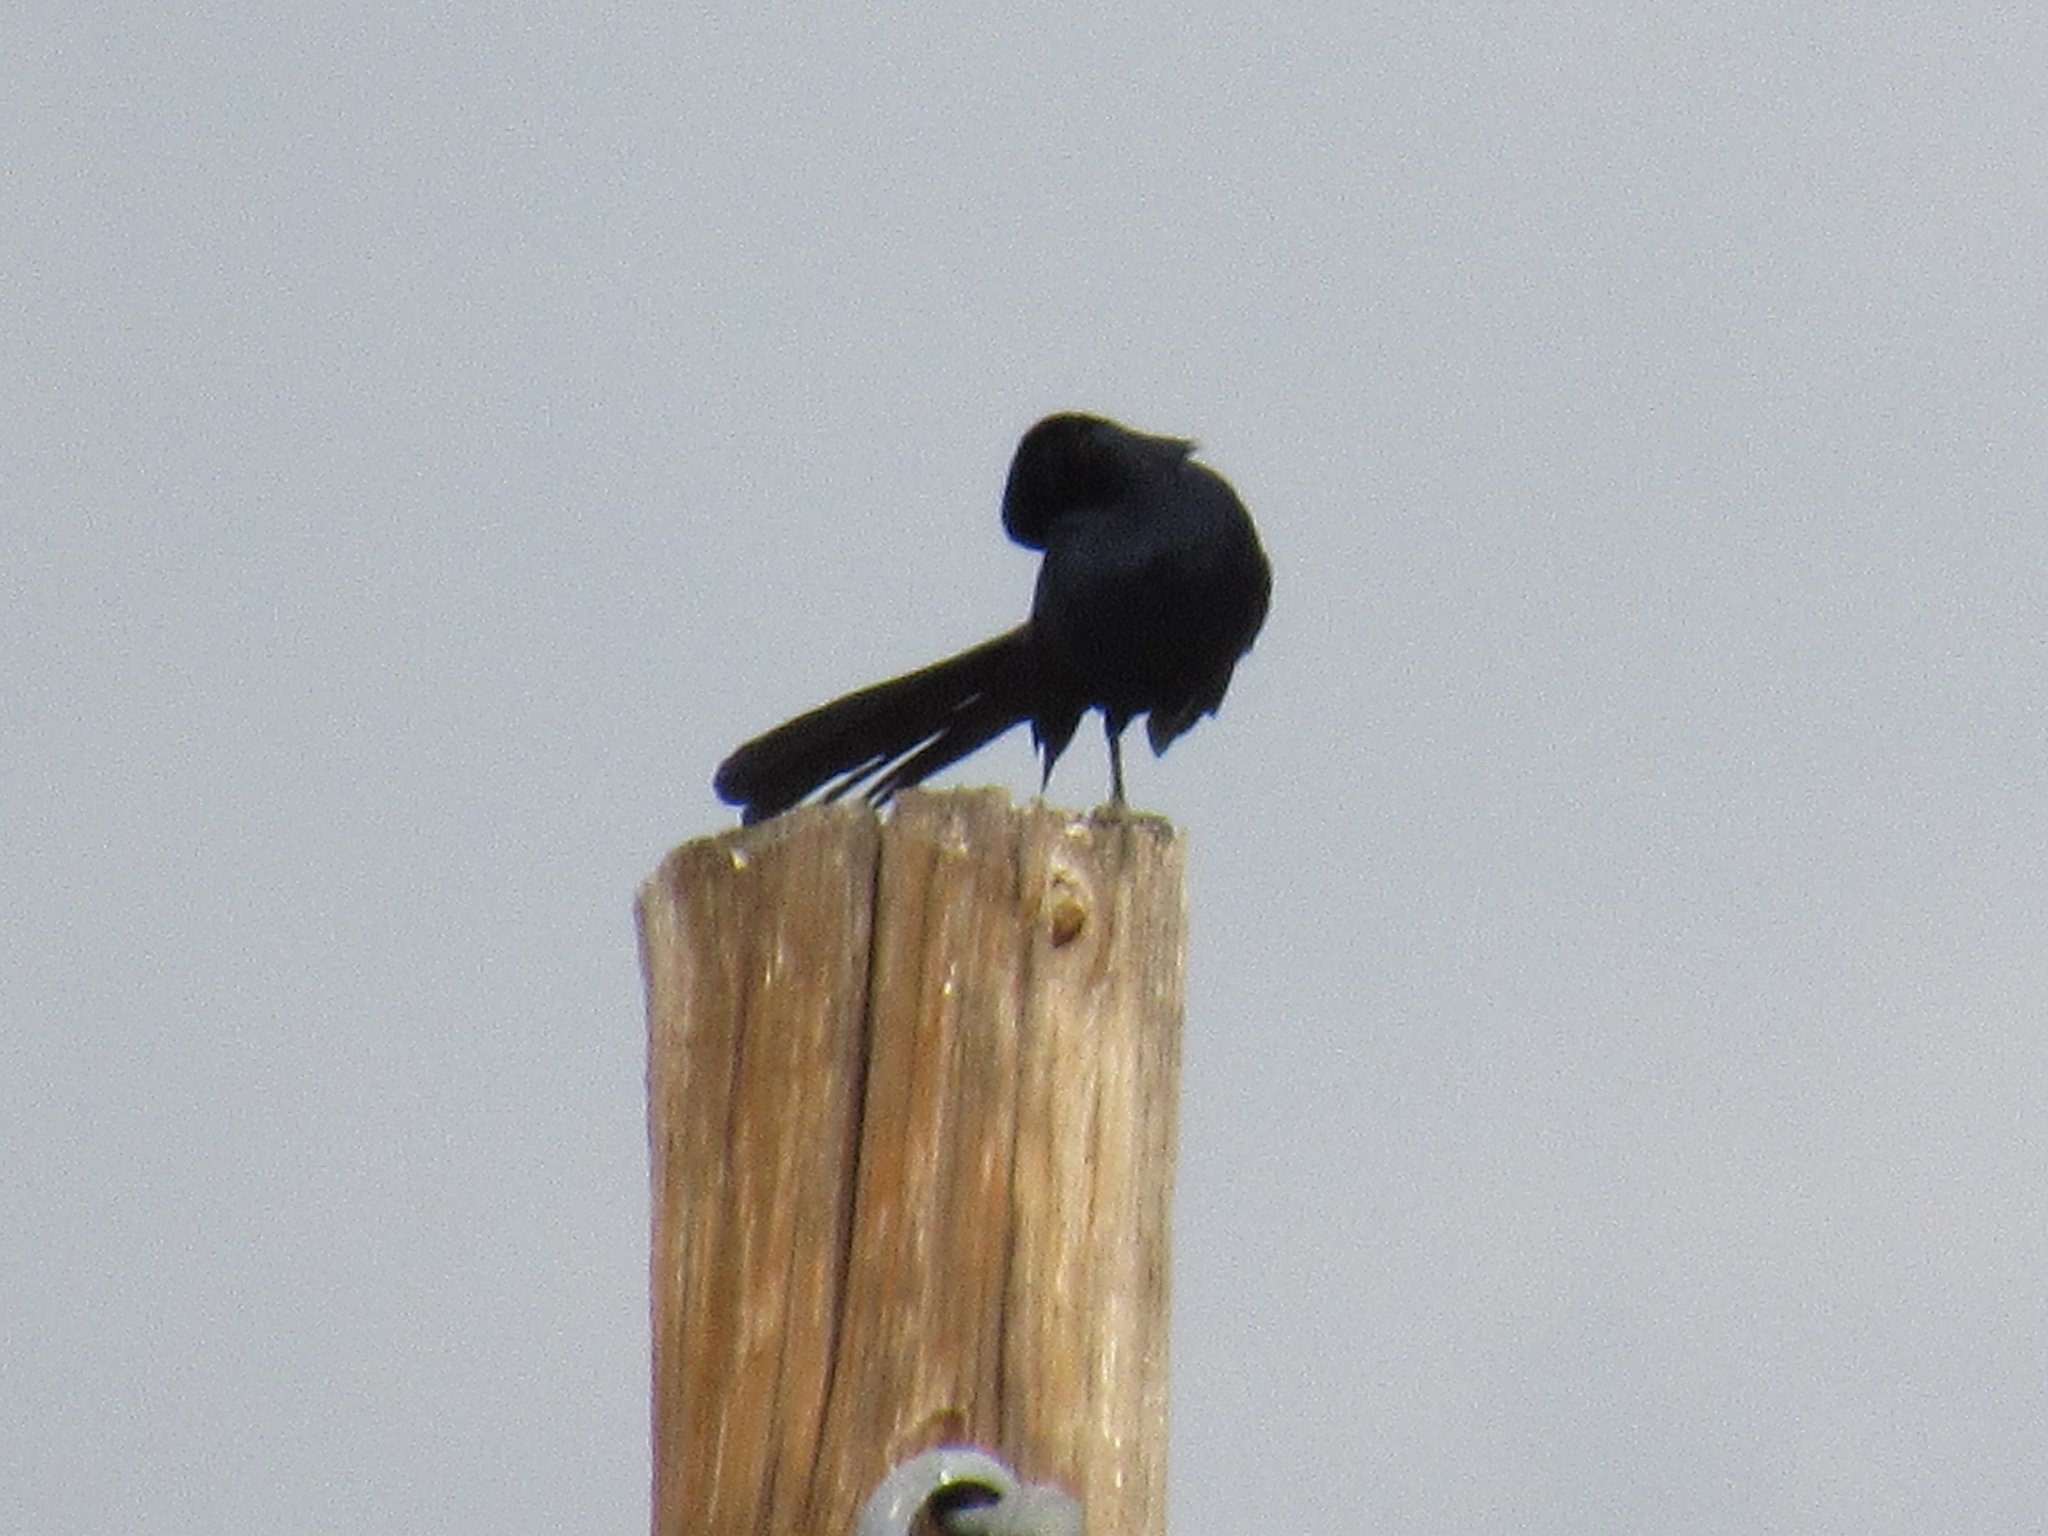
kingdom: Animalia
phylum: Chordata
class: Aves
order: Passeriformes
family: Icteridae
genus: Quiscalus
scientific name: Quiscalus mexicanus
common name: Great-tailed grackle
